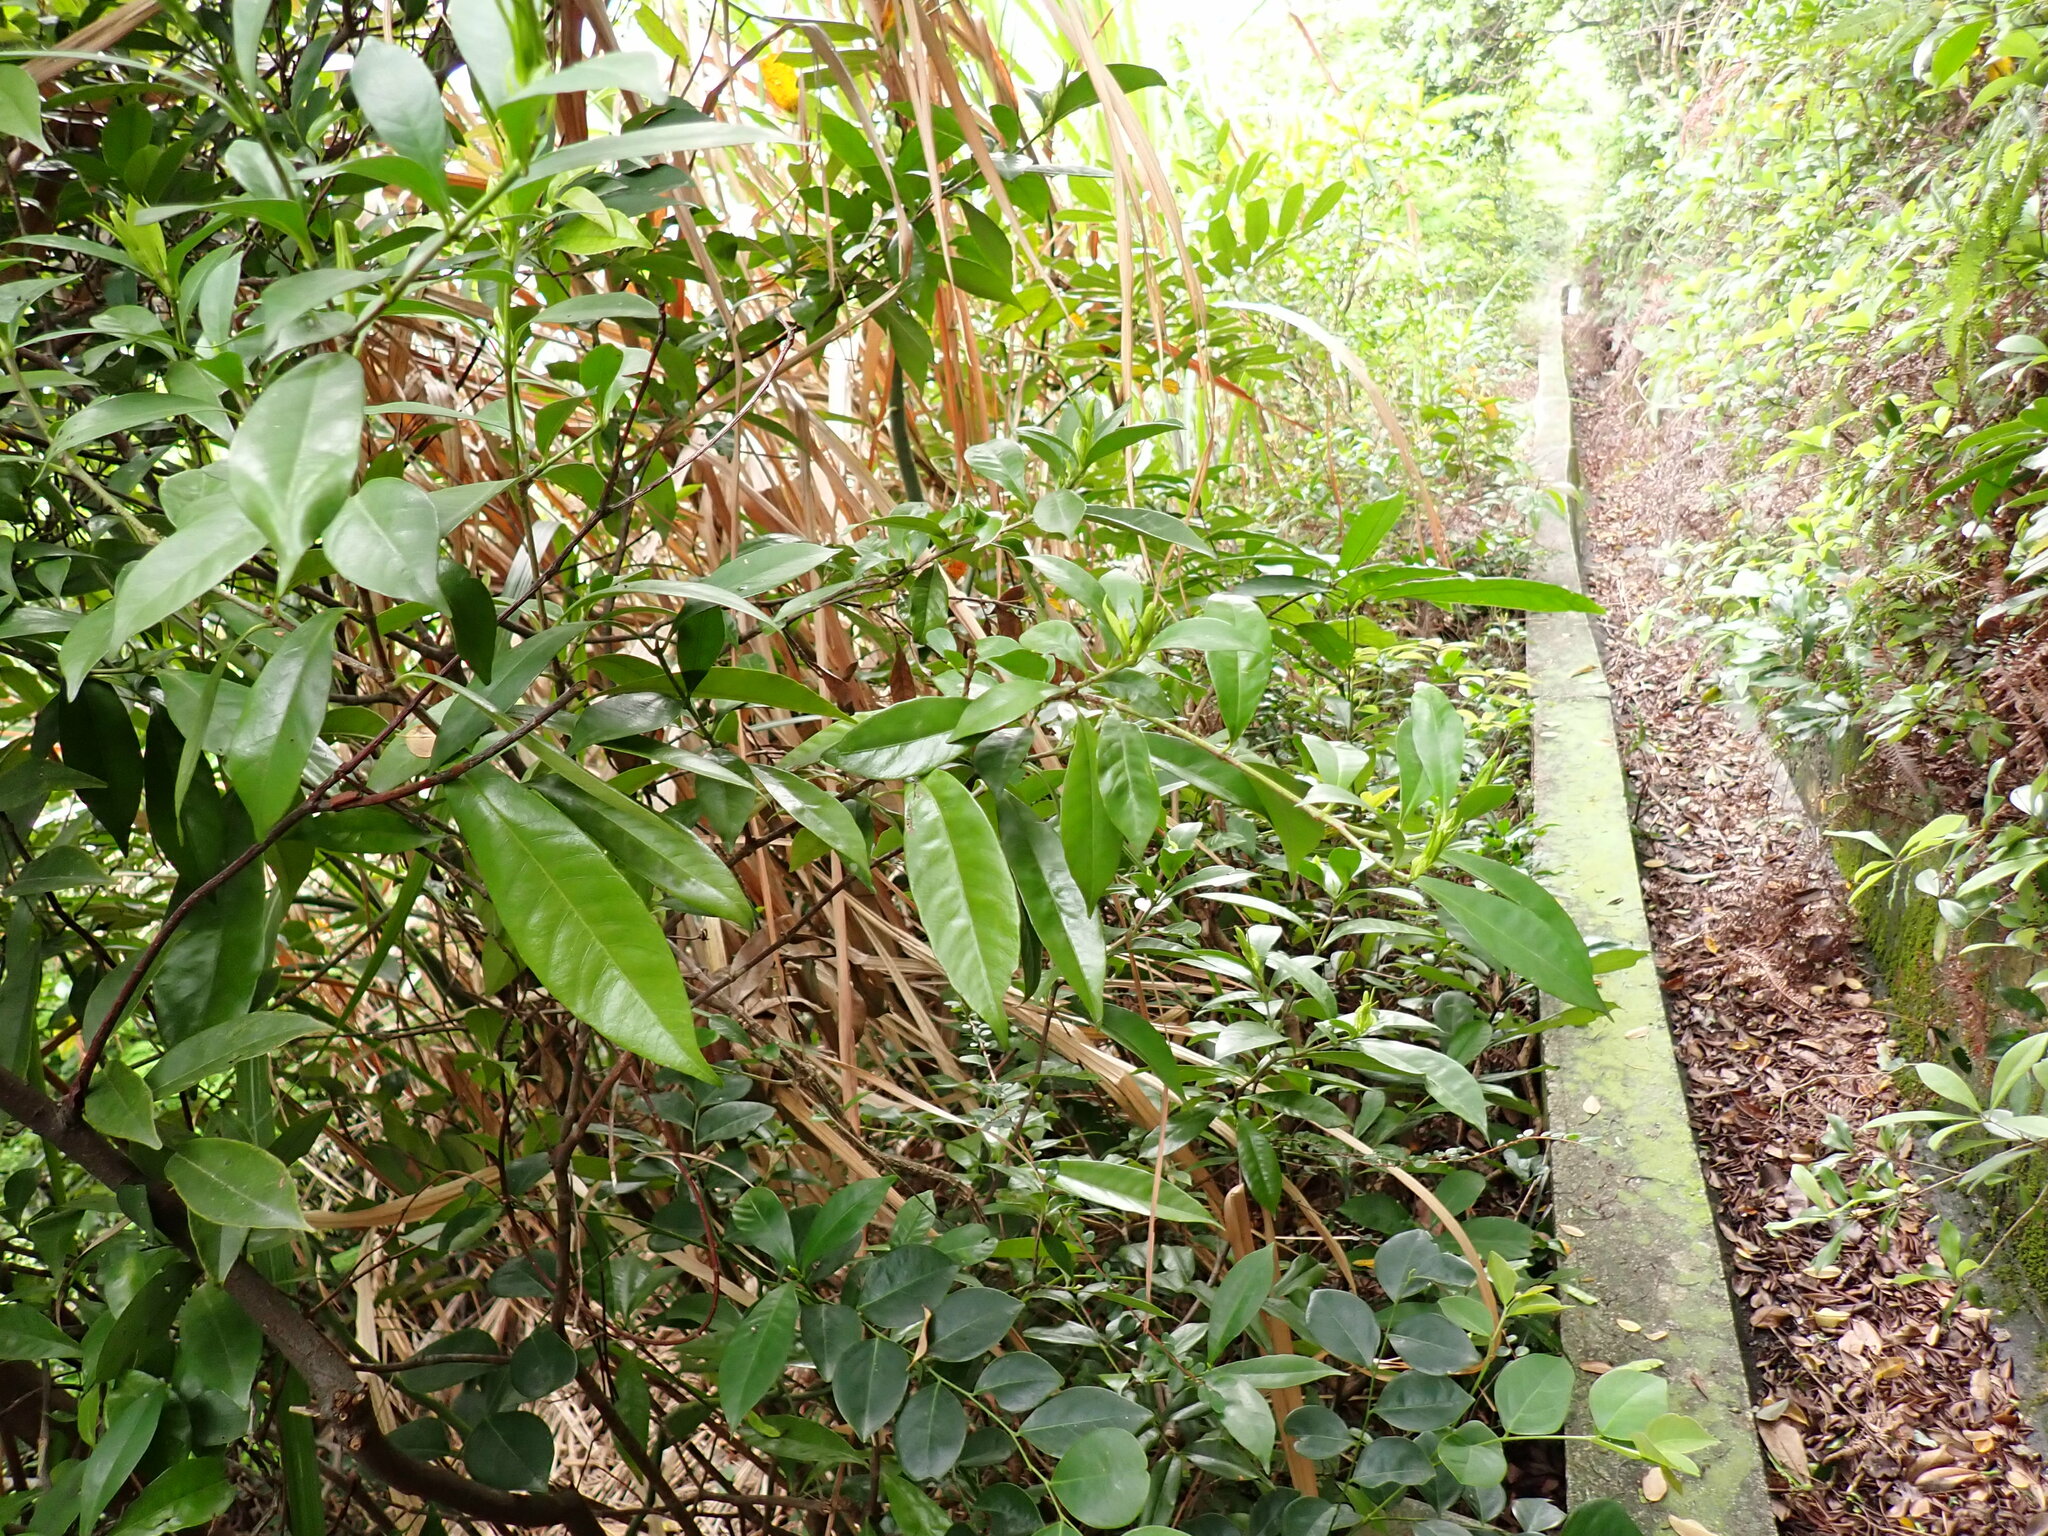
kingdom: Plantae
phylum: Tracheophyta
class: Magnoliopsida
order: Gentianales
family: Rubiaceae
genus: Gardenia
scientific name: Gardenia jasminoides
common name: Cape-jasmine
